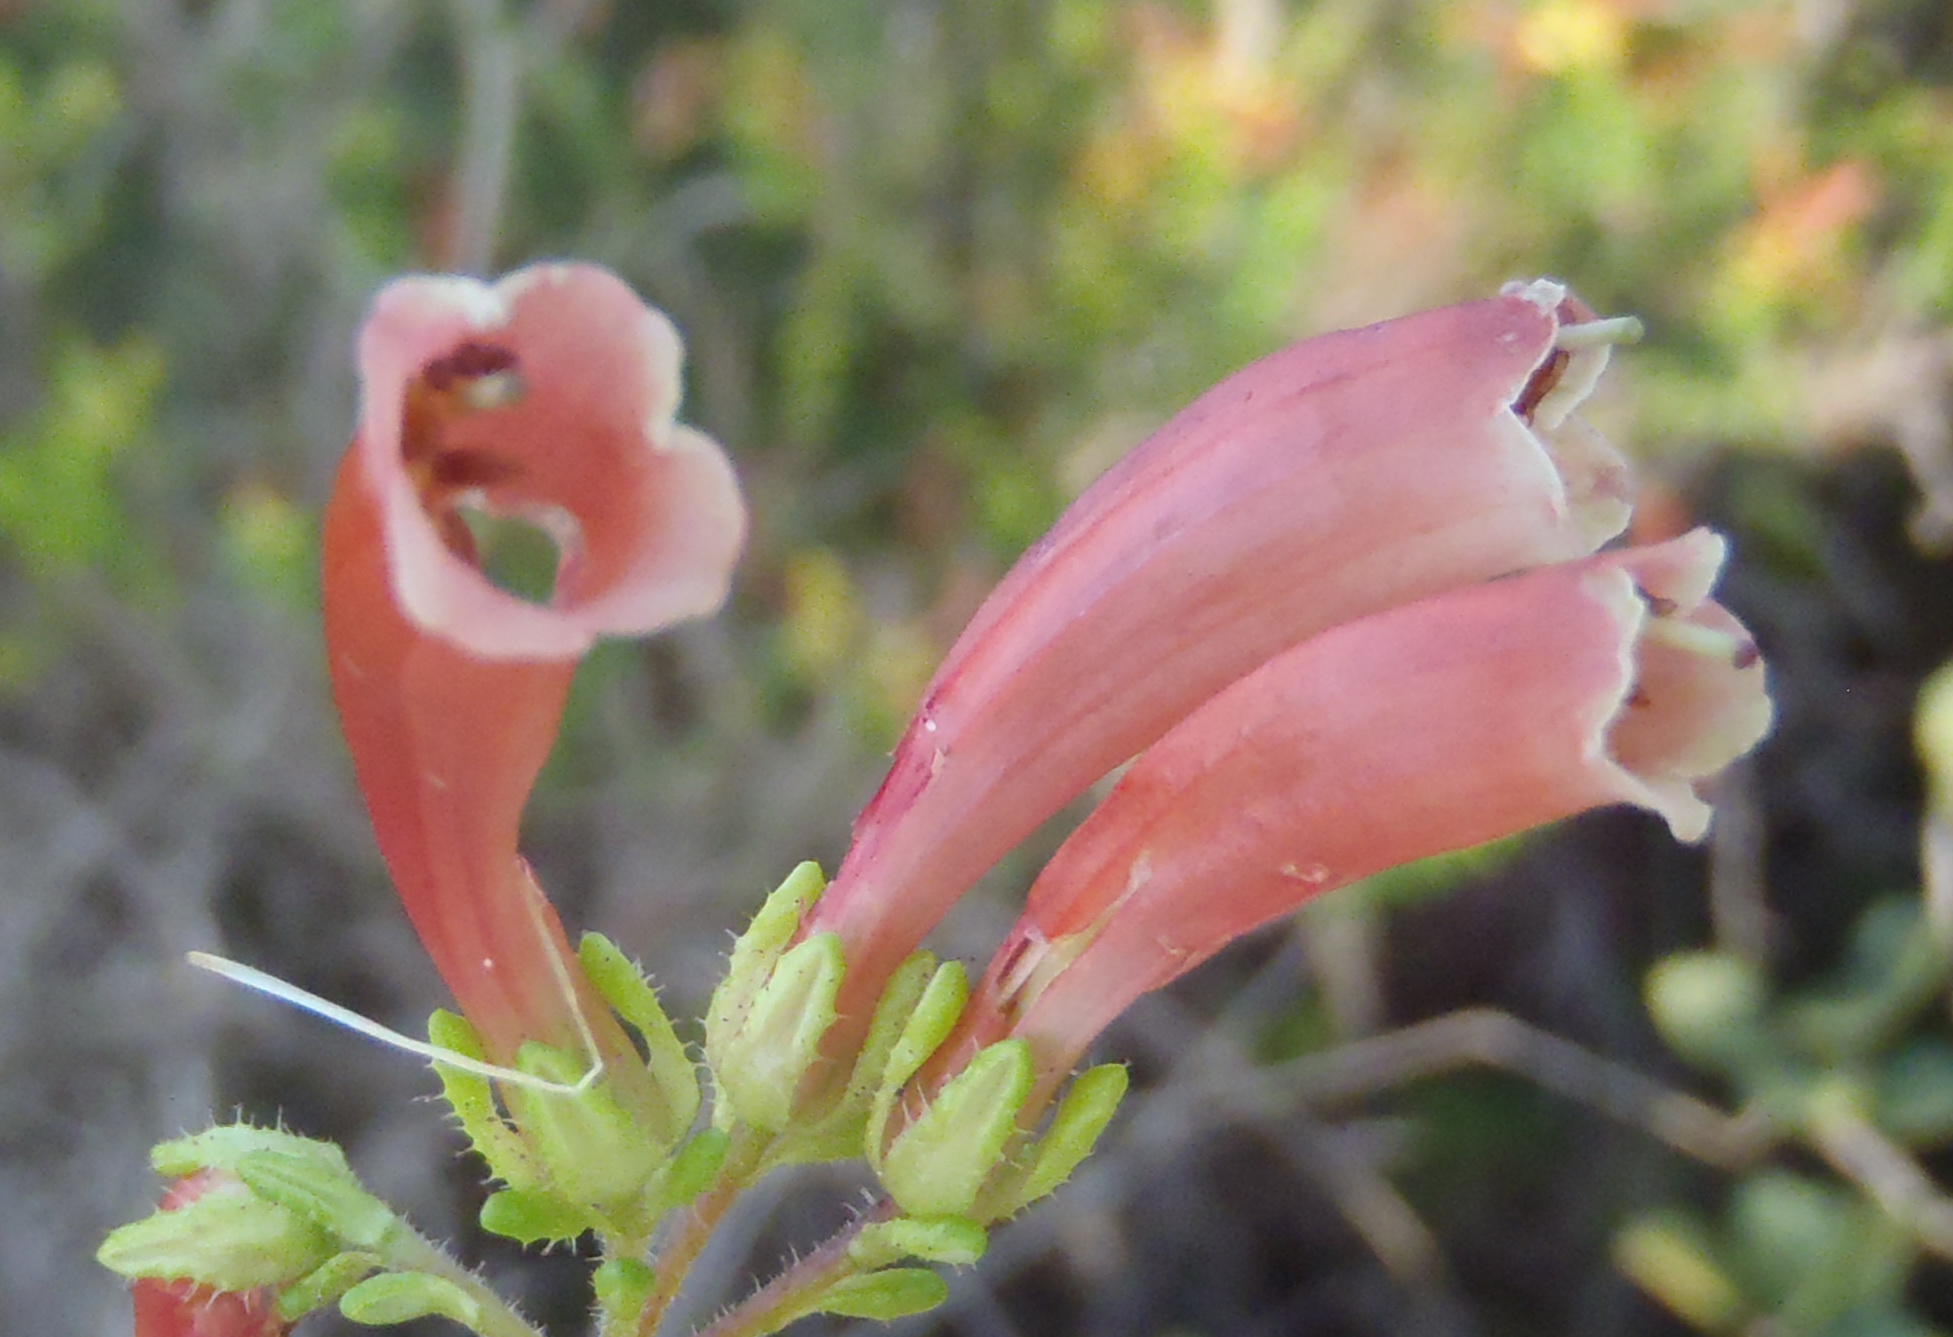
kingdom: Plantae
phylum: Tracheophyta
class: Magnoliopsida
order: Ericales
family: Ericaceae
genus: Erica
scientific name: Erica glandulosa
